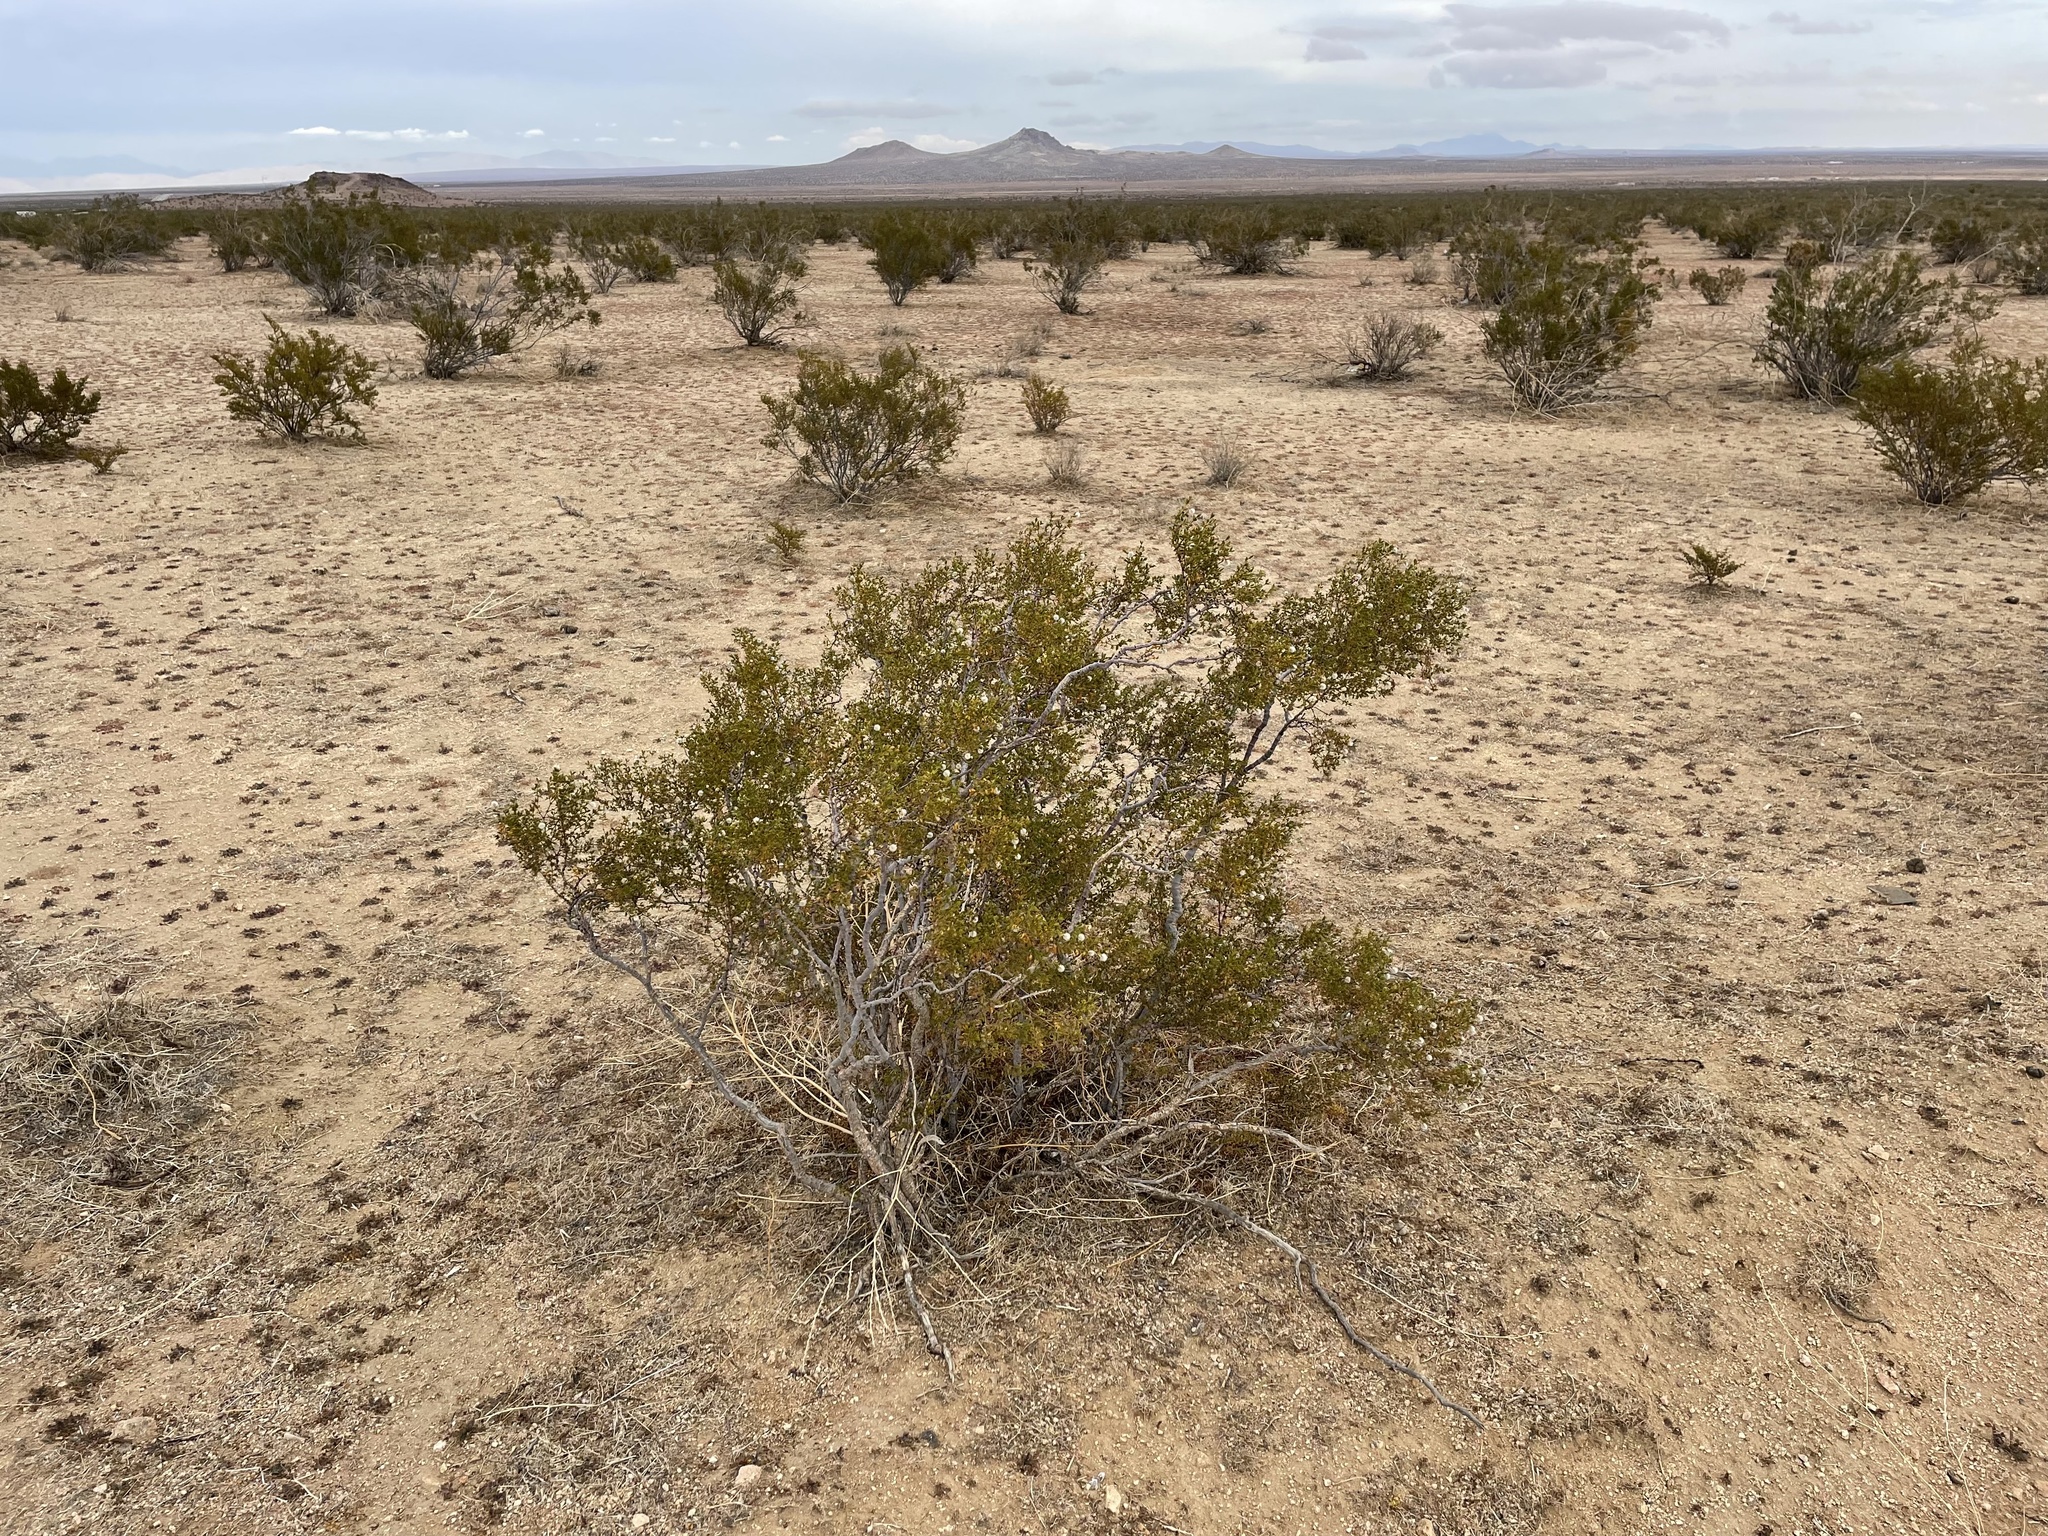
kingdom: Plantae
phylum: Tracheophyta
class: Magnoliopsida
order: Zygophyllales
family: Zygophyllaceae
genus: Larrea
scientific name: Larrea tridentata
